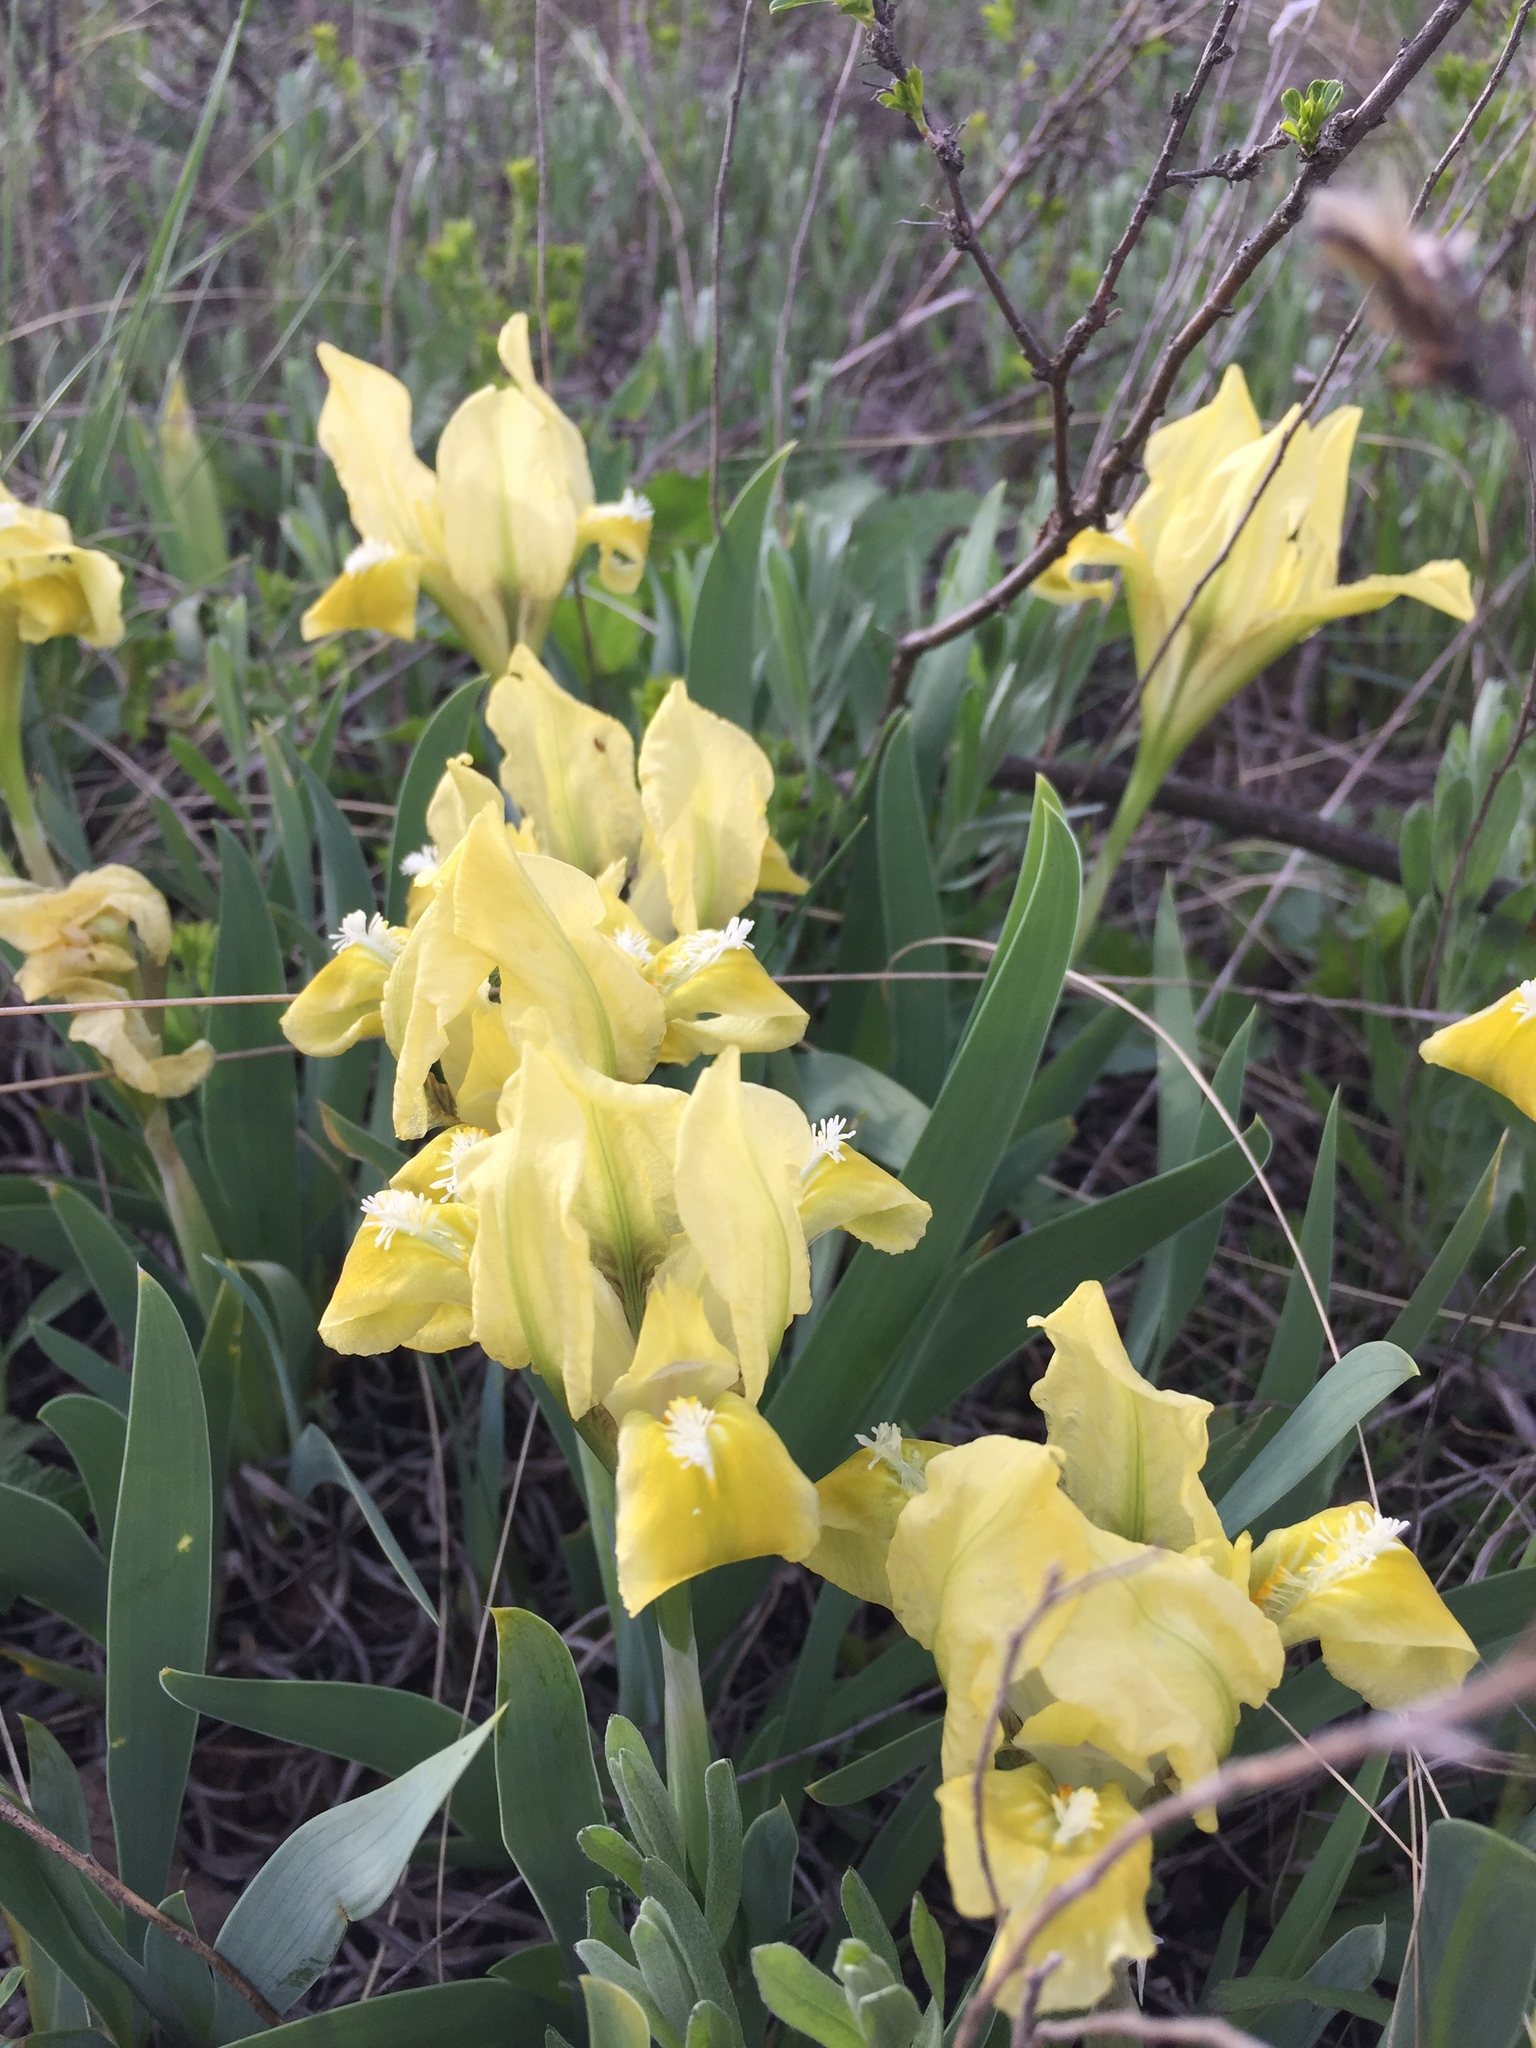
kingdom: Plantae
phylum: Tracheophyta
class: Liliopsida
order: Asparagales
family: Iridaceae
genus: Iris
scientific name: Iris pumila
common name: Dwarf iris
